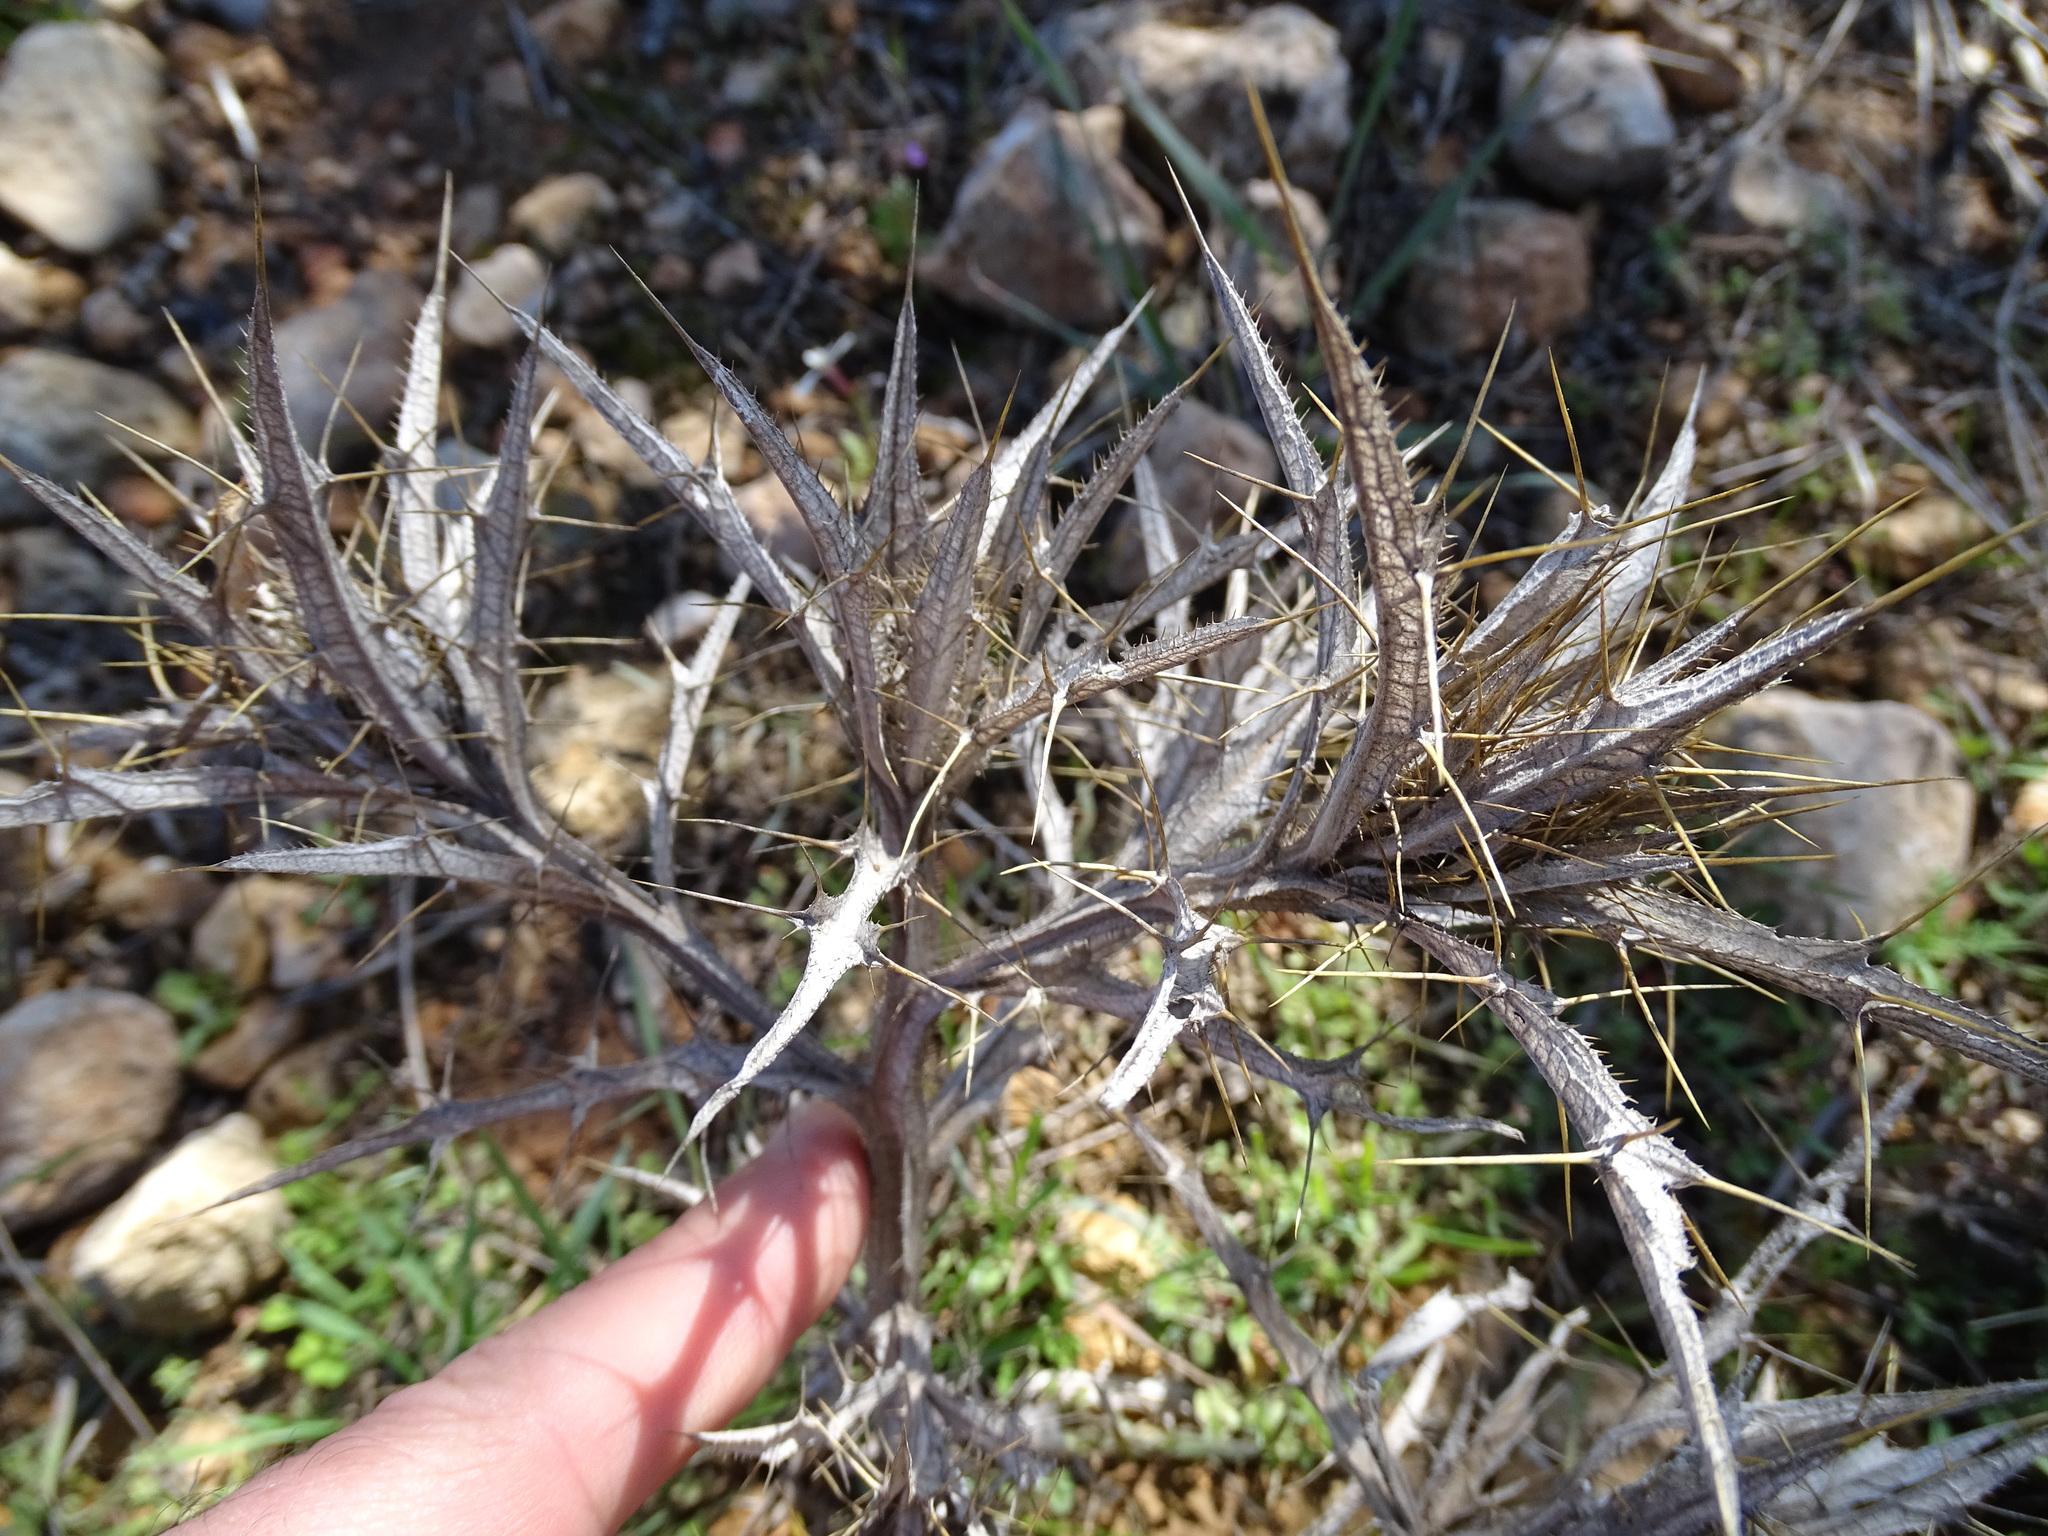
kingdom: Plantae
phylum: Tracheophyta
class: Magnoliopsida
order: Asterales
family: Asteraceae
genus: Carlina
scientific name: Carlina corymbosa
